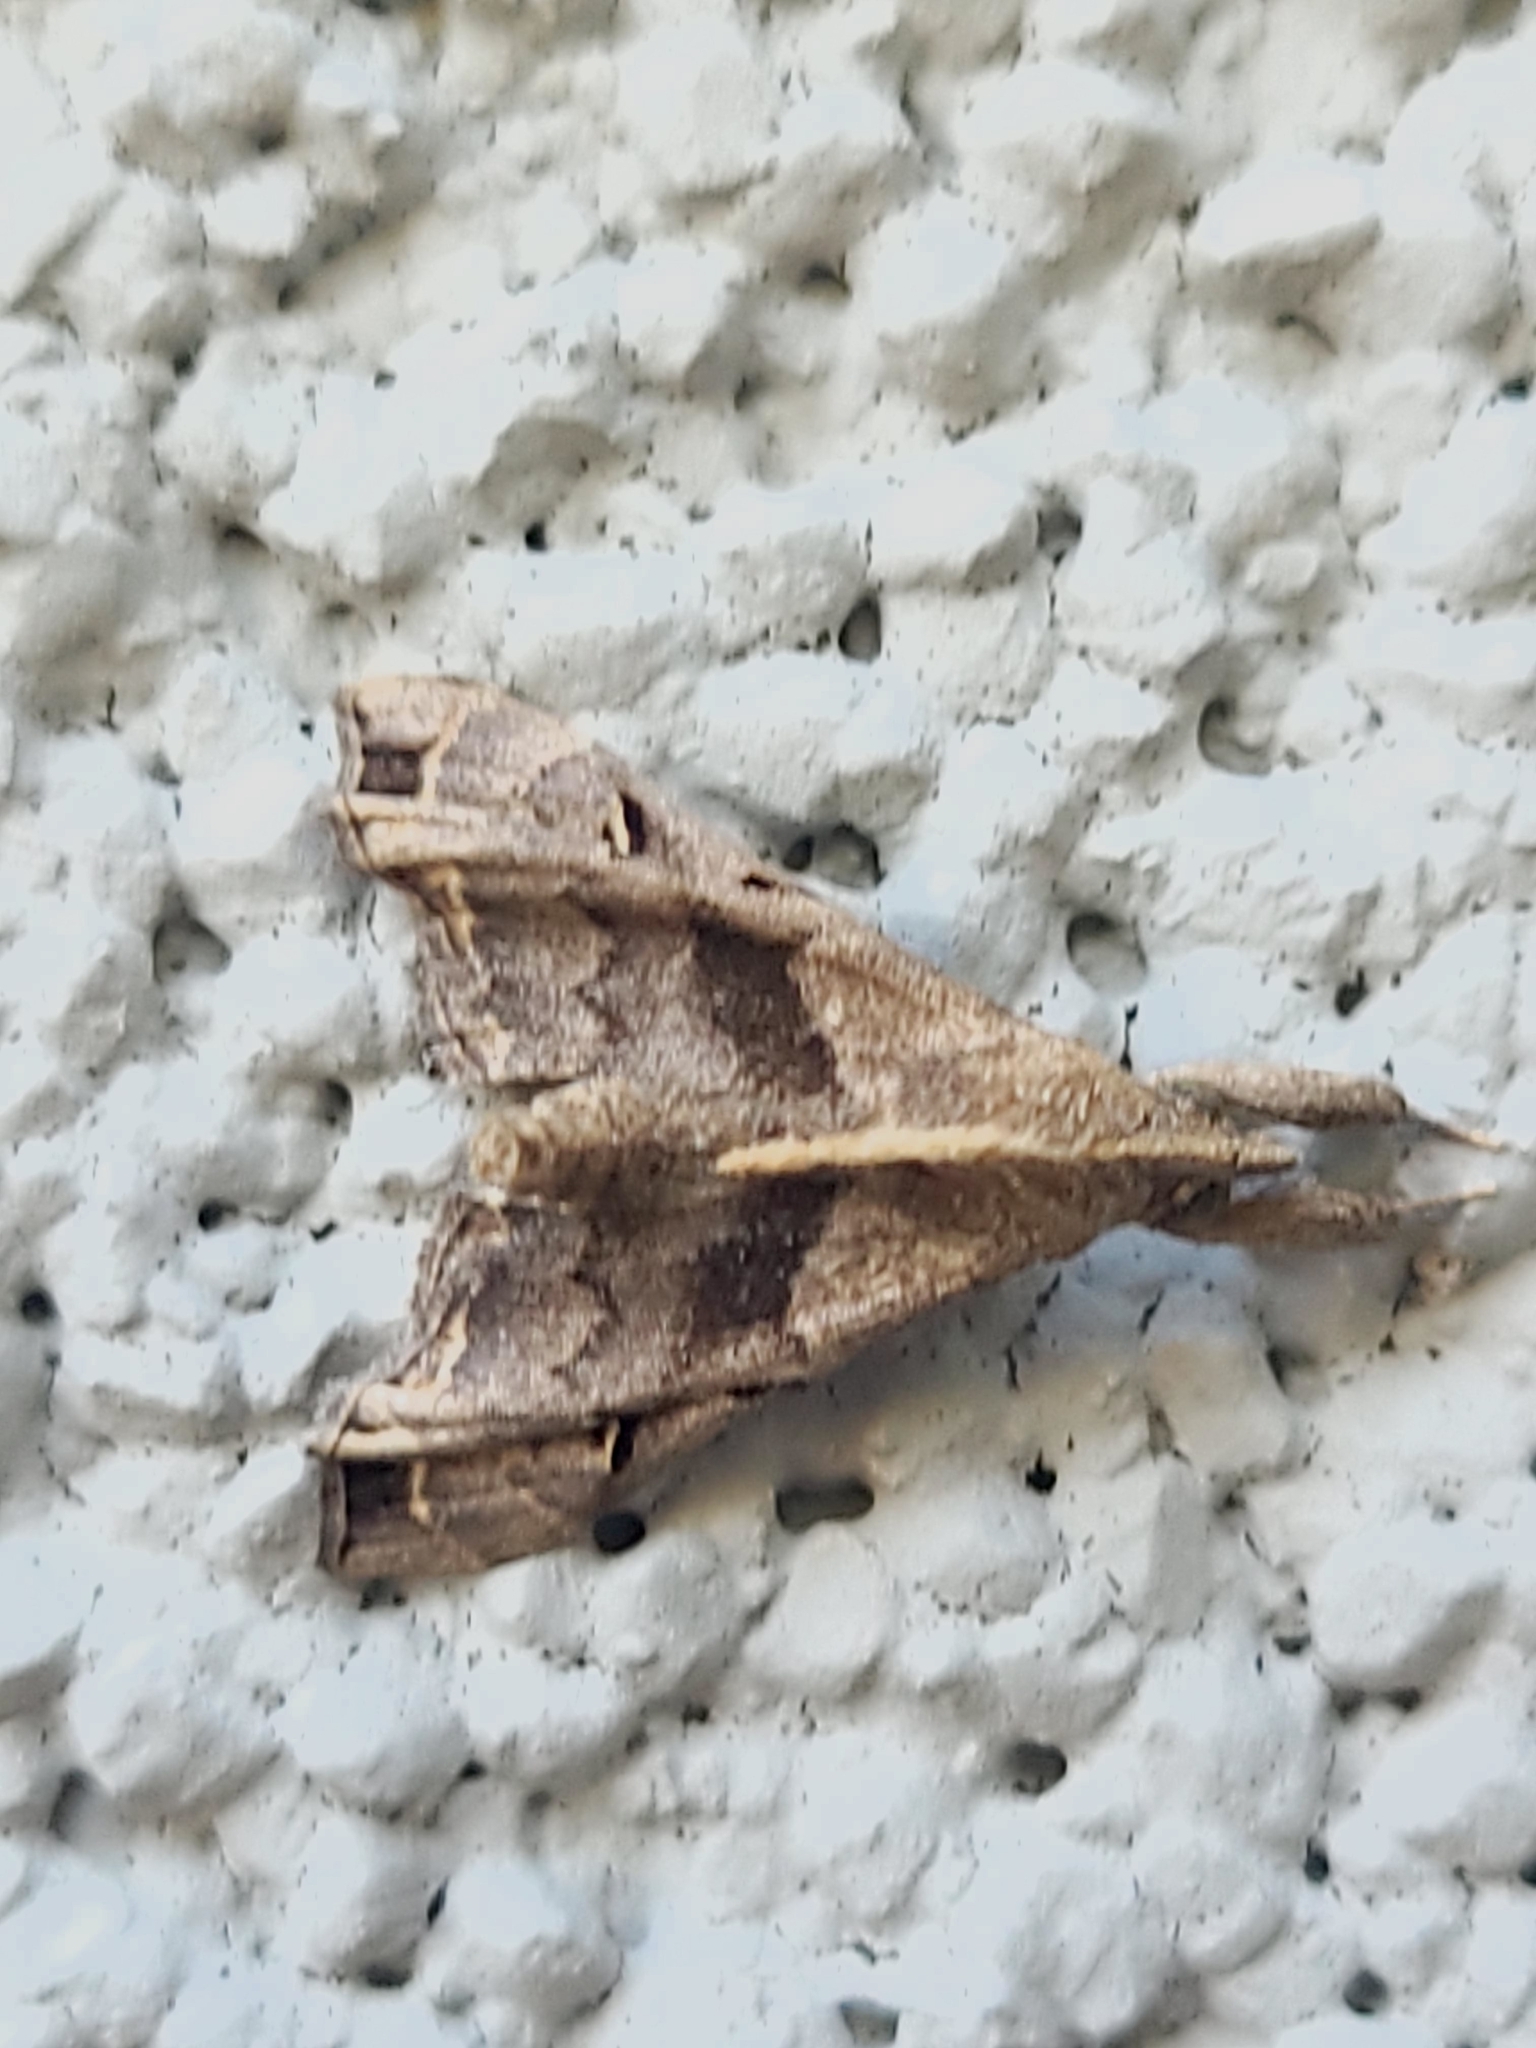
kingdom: Animalia
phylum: Arthropoda
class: Insecta
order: Lepidoptera
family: Erebidae
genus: Palthis
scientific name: Palthis asopialis
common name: Faint-spotted palthis moth
